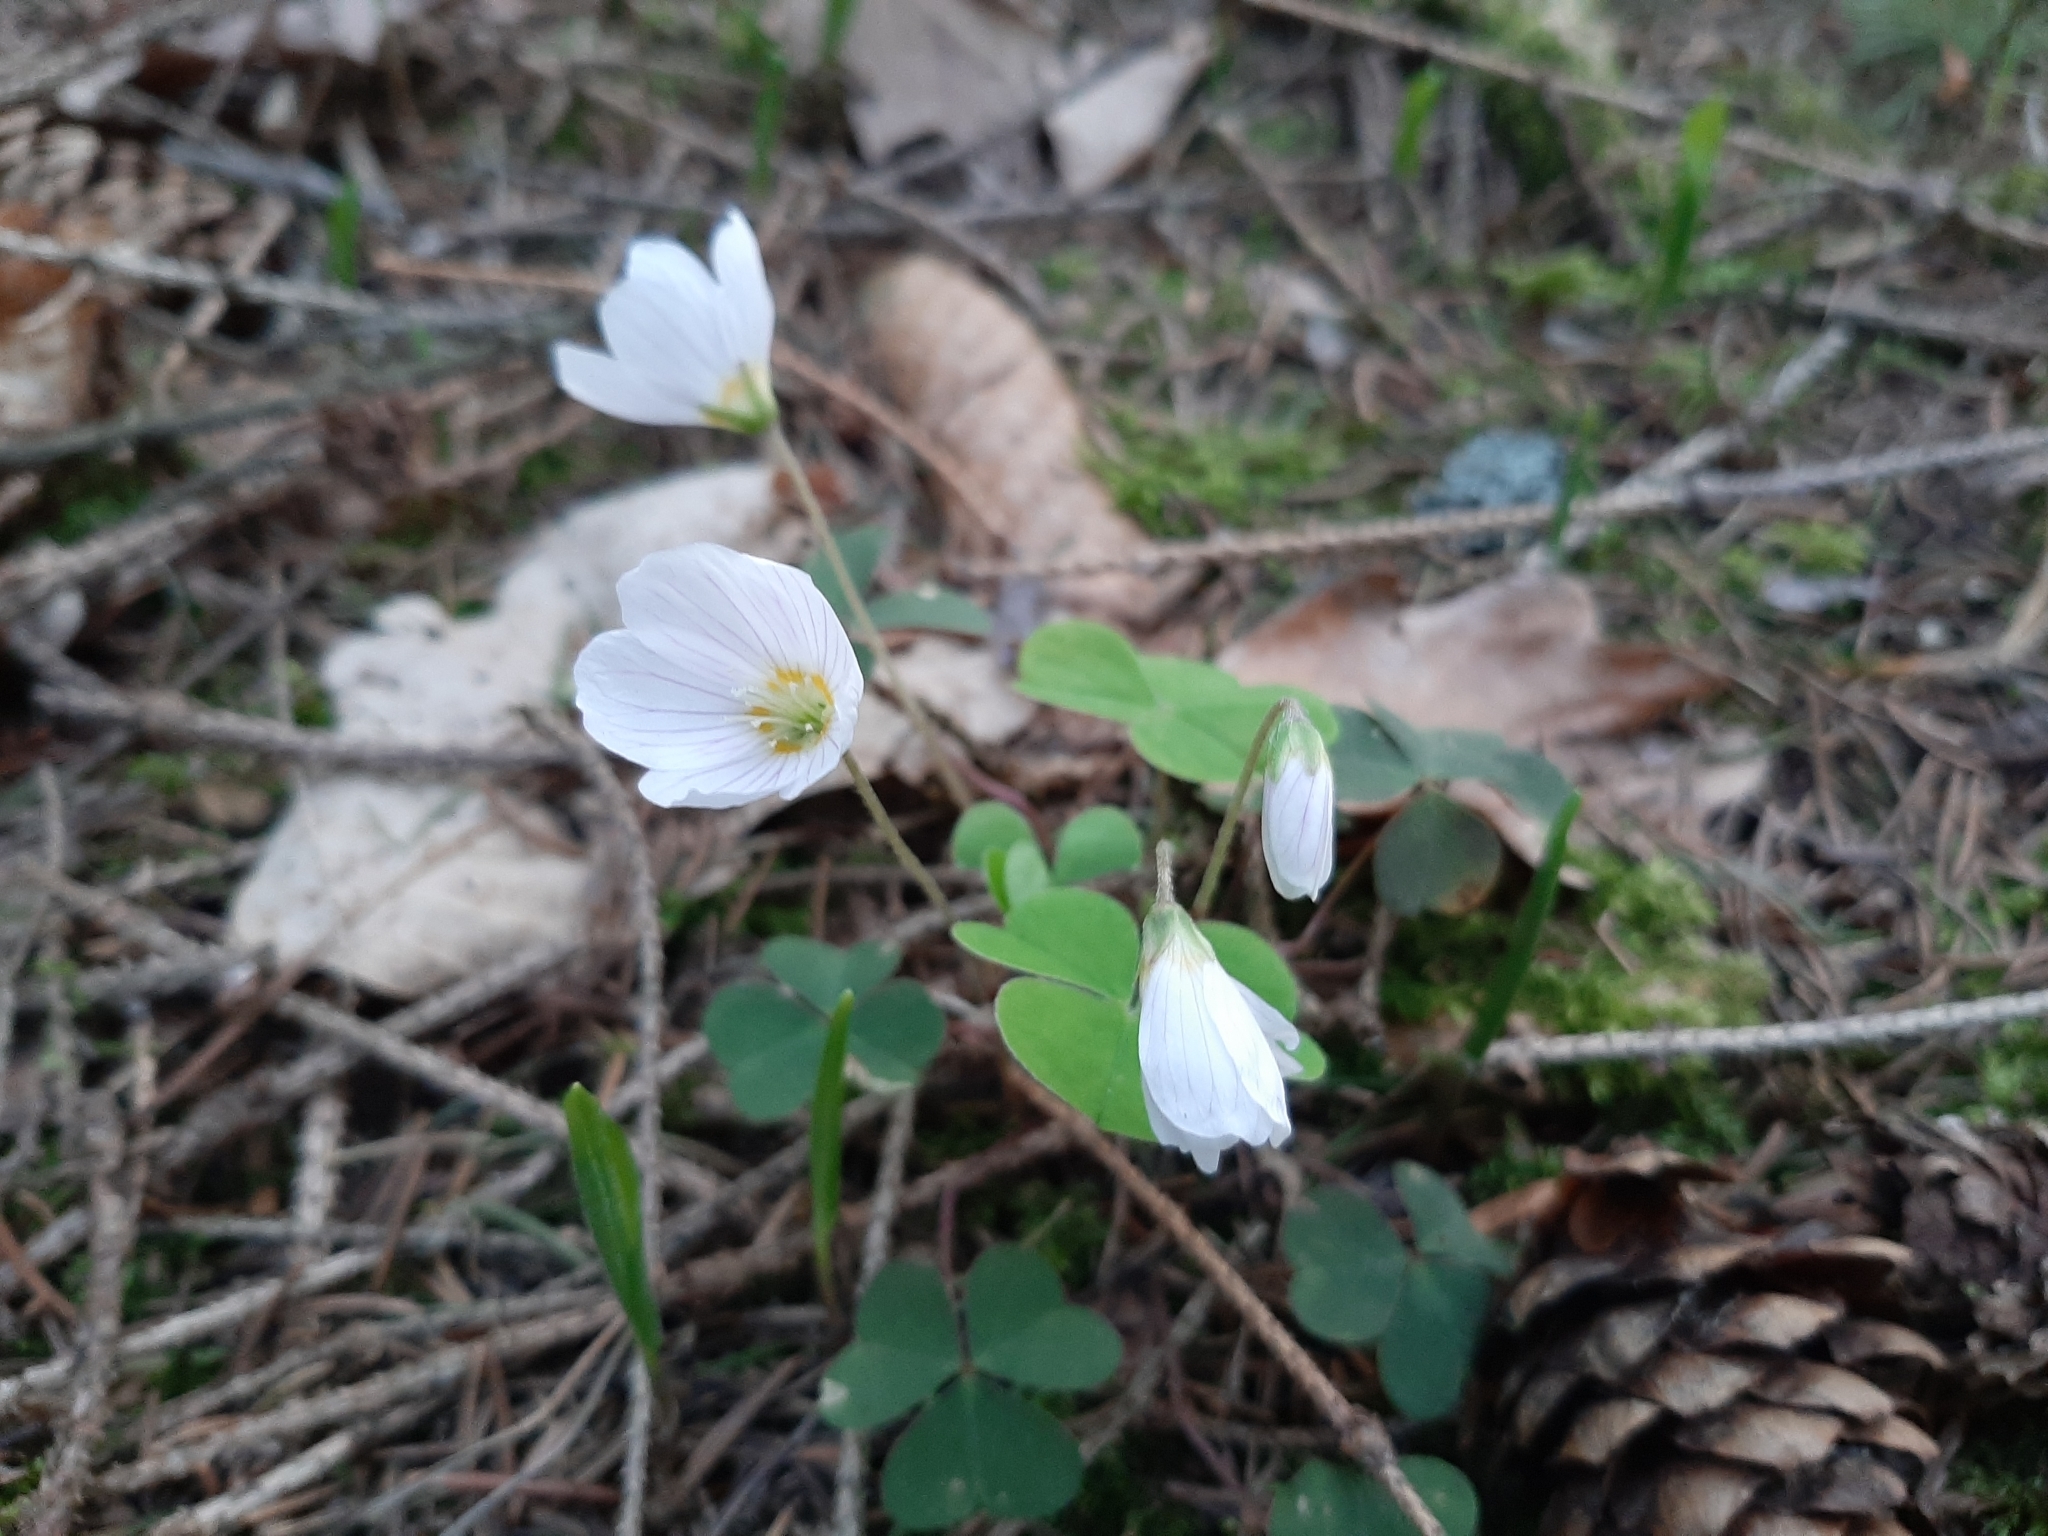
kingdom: Plantae
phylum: Tracheophyta
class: Magnoliopsida
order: Oxalidales
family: Oxalidaceae
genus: Oxalis
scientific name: Oxalis acetosella
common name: Wood-sorrel
